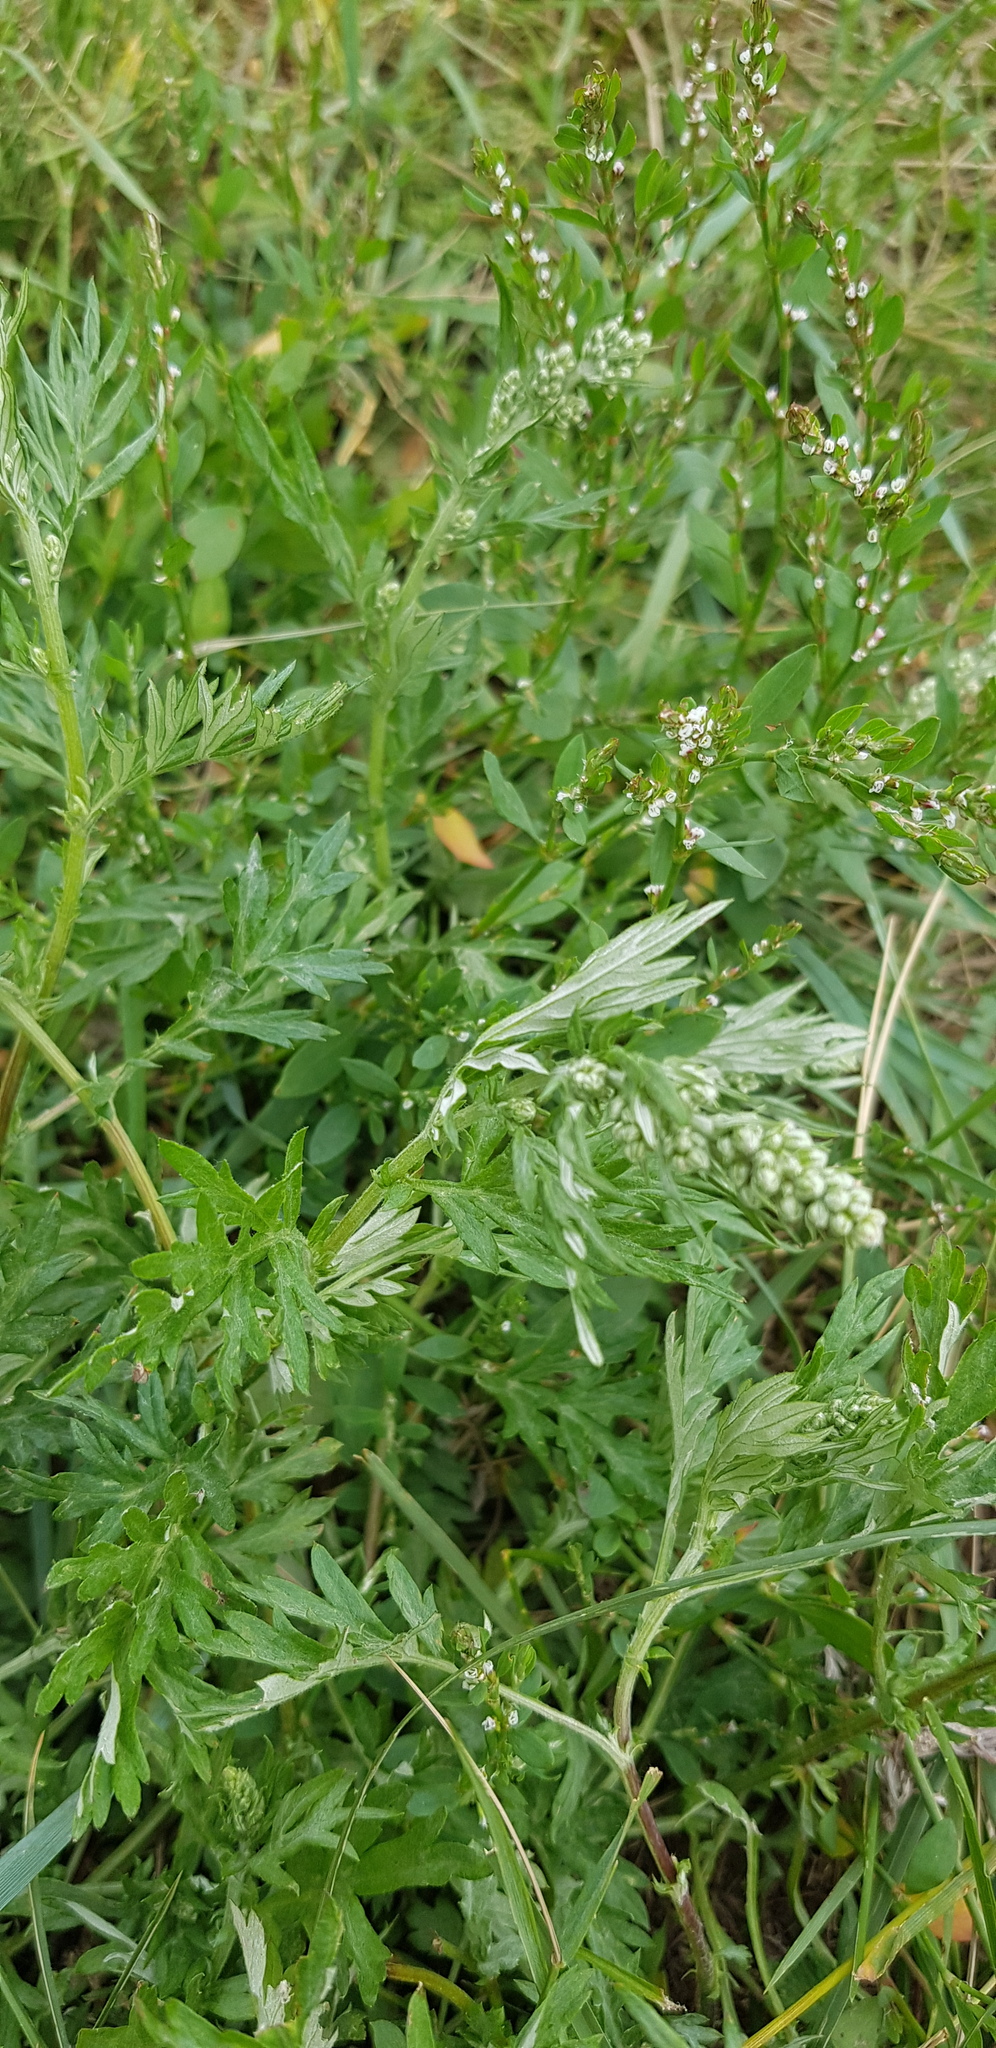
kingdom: Plantae
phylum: Tracheophyta
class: Magnoliopsida
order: Asterales
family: Asteraceae
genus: Artemisia
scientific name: Artemisia sieversiana
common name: Sieversian wormwood
